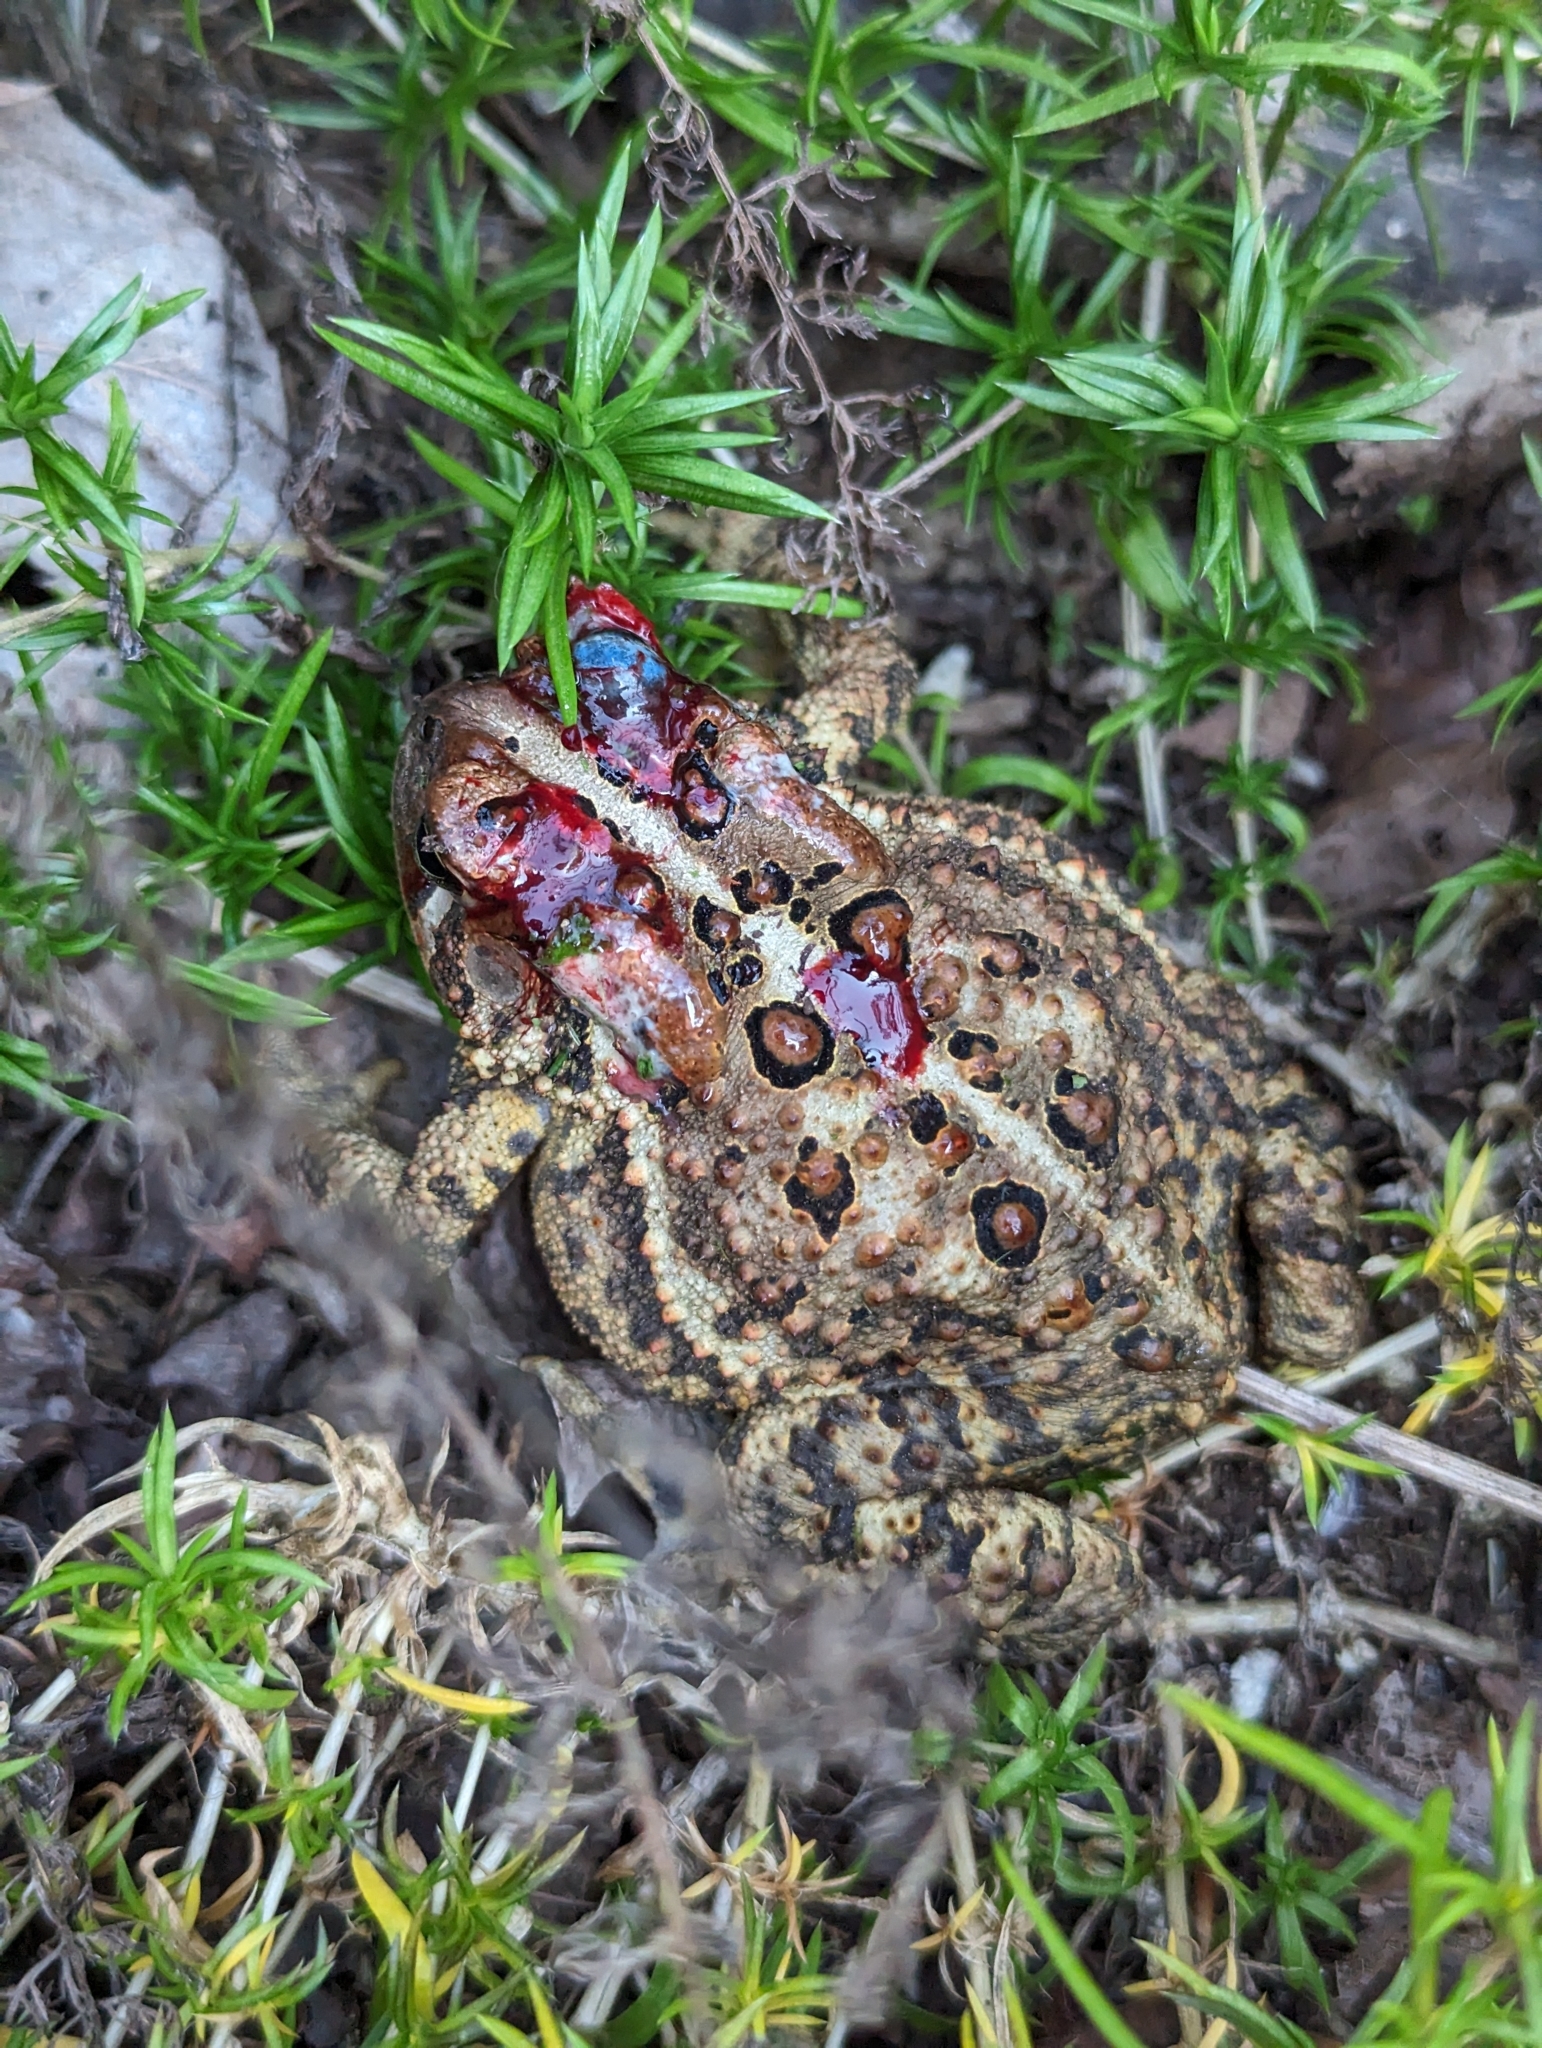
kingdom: Animalia
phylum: Chordata
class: Amphibia
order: Anura
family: Bufonidae
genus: Anaxyrus
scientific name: Anaxyrus americanus
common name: American toad
